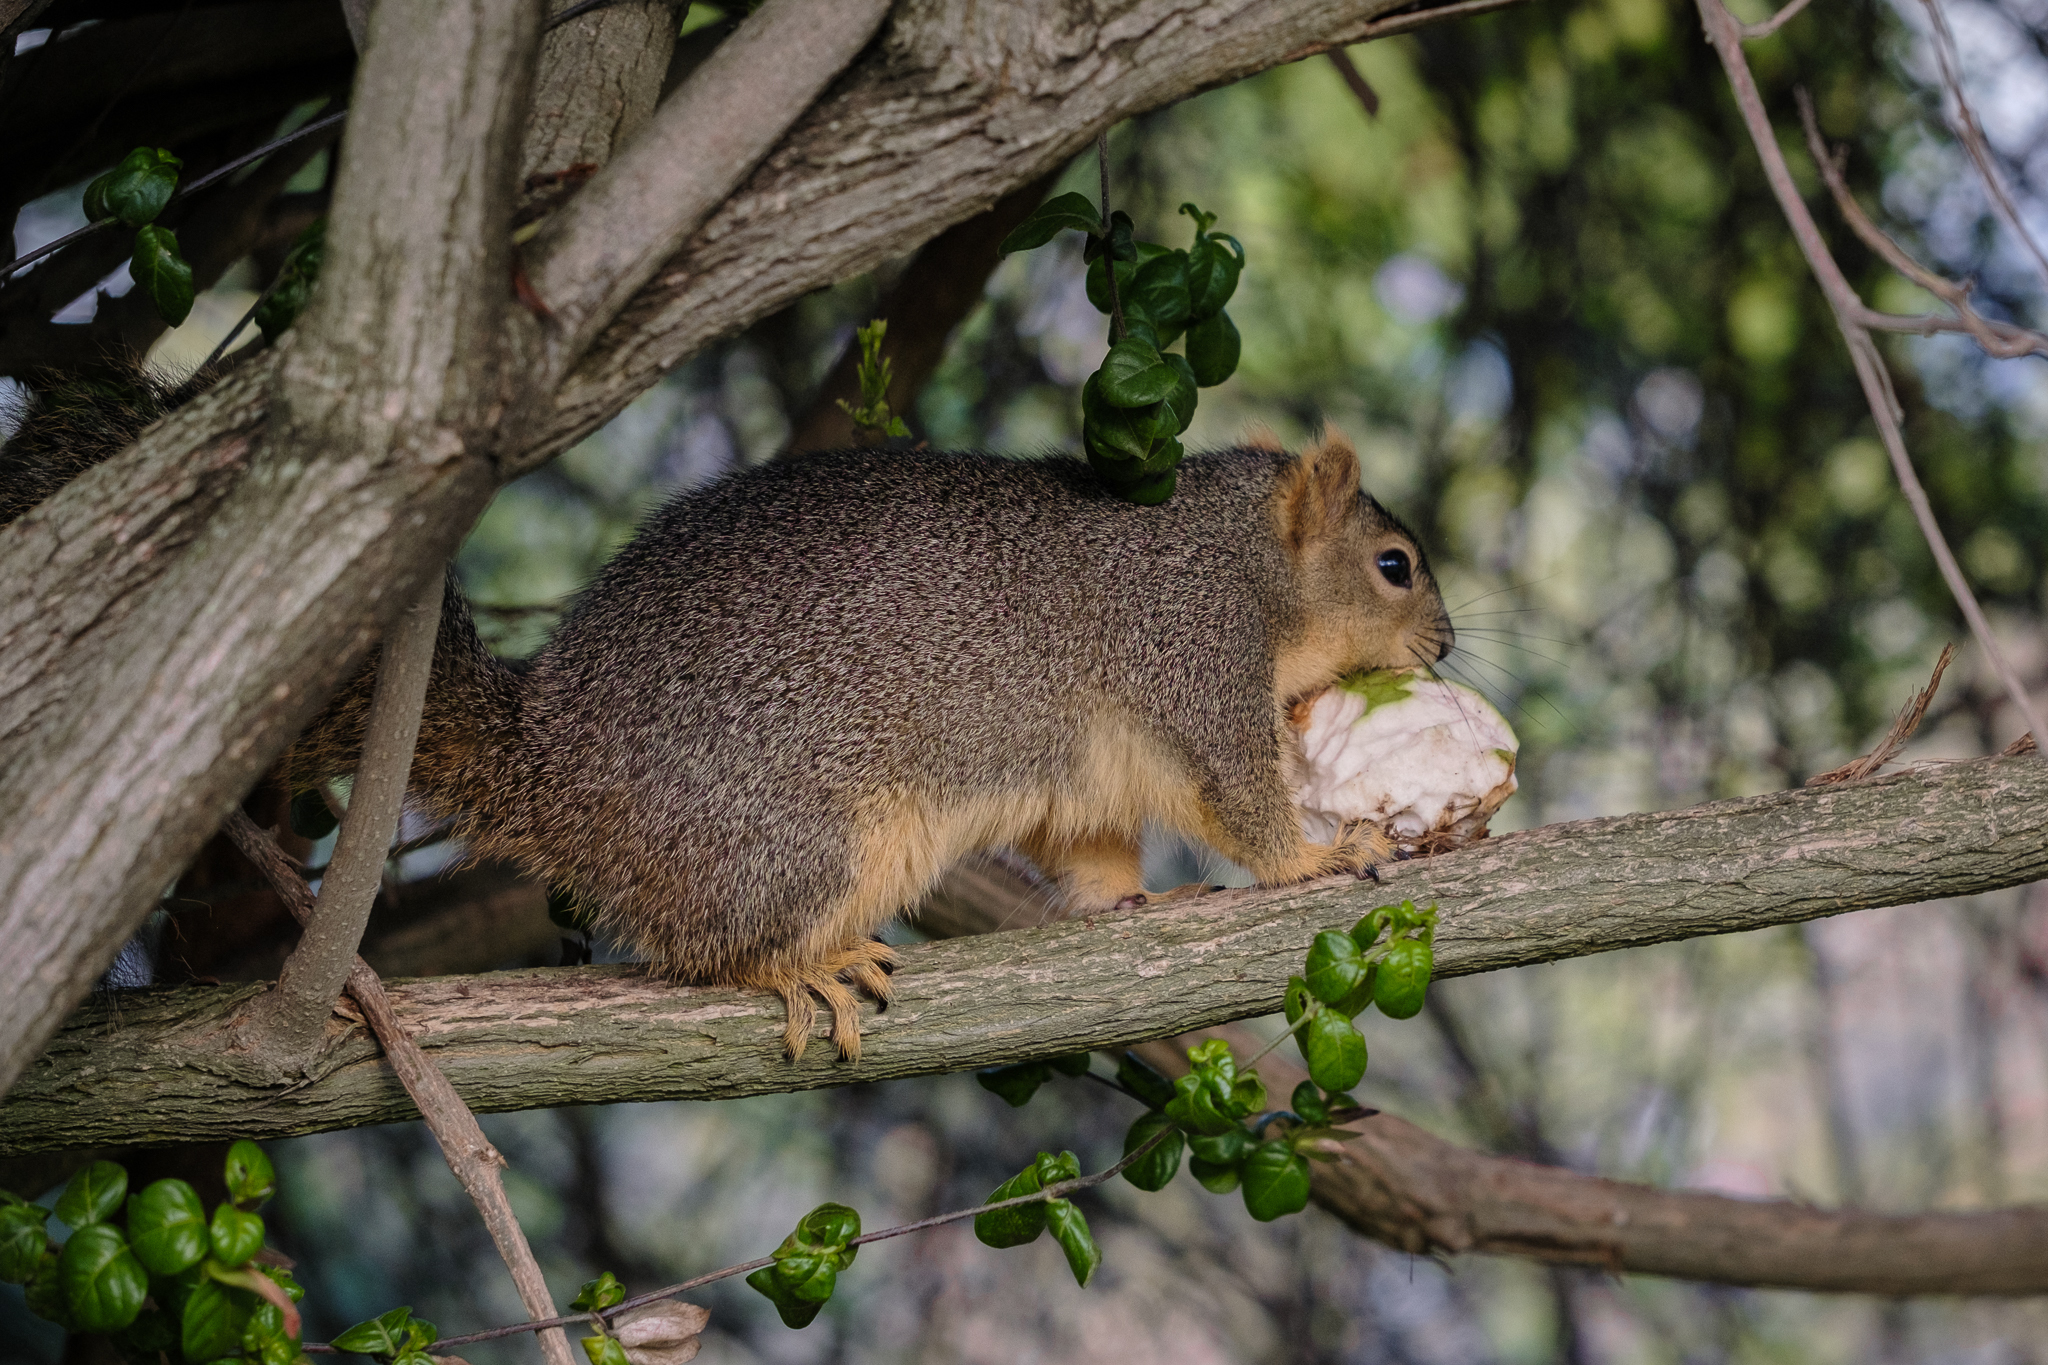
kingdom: Animalia
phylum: Chordata
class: Mammalia
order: Rodentia
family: Sciuridae
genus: Sciurus
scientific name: Sciurus niger
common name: Fox squirrel
